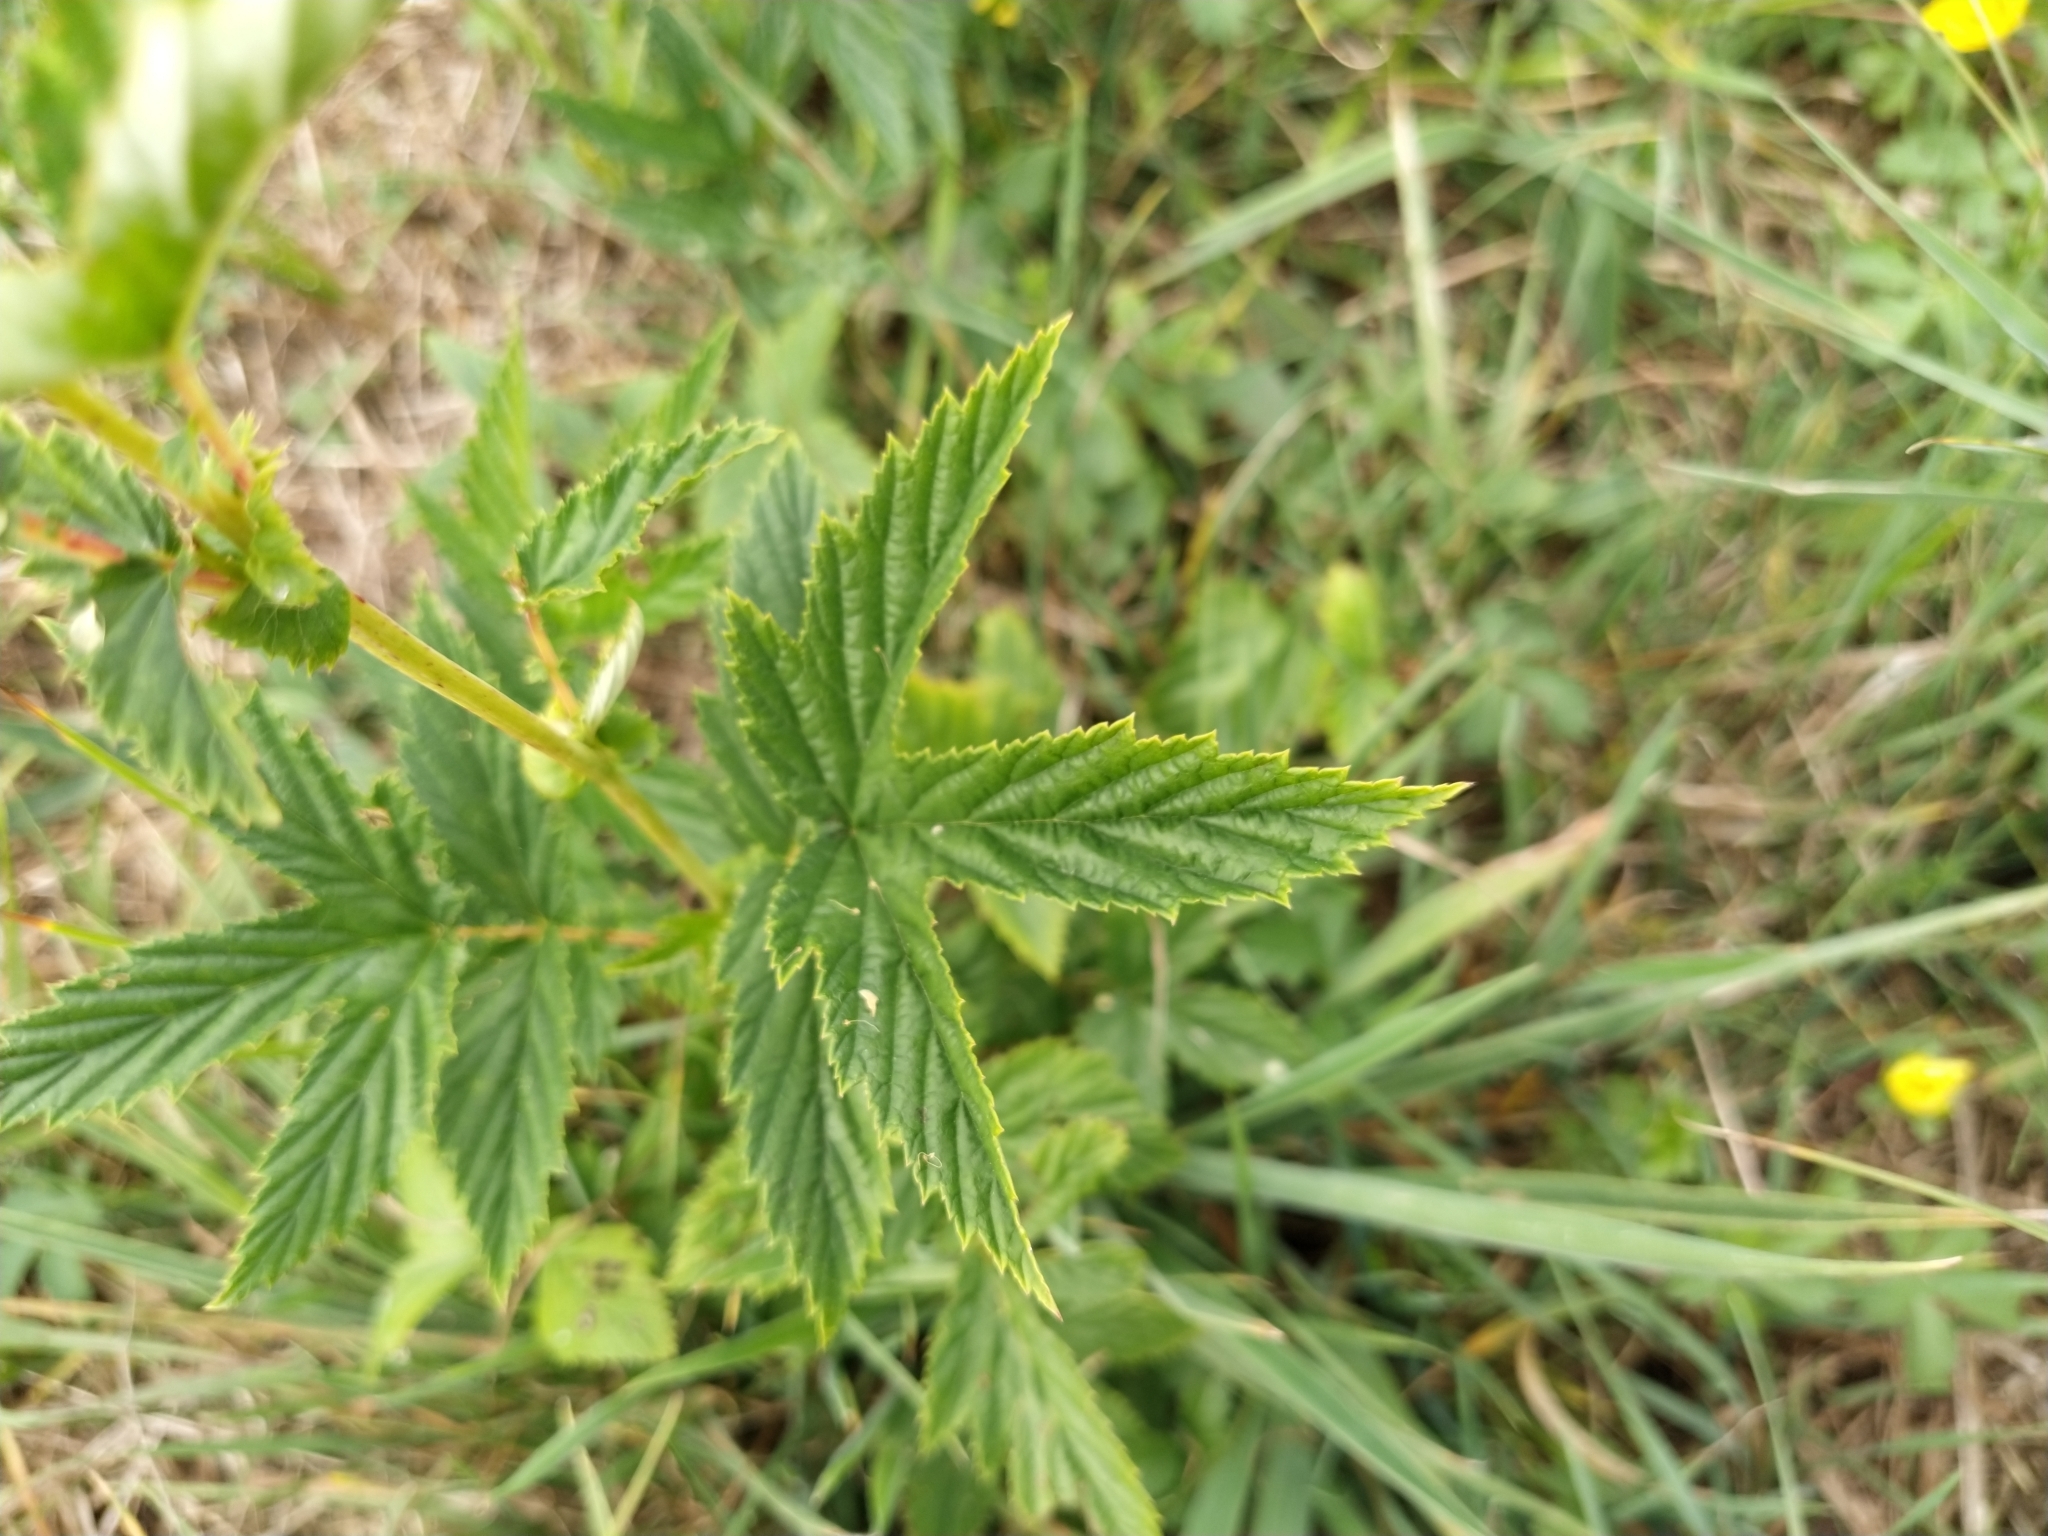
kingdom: Plantae
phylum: Tracheophyta
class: Magnoliopsida
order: Rosales
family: Rosaceae
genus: Filipendula
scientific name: Filipendula ulmaria
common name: Meadowsweet
